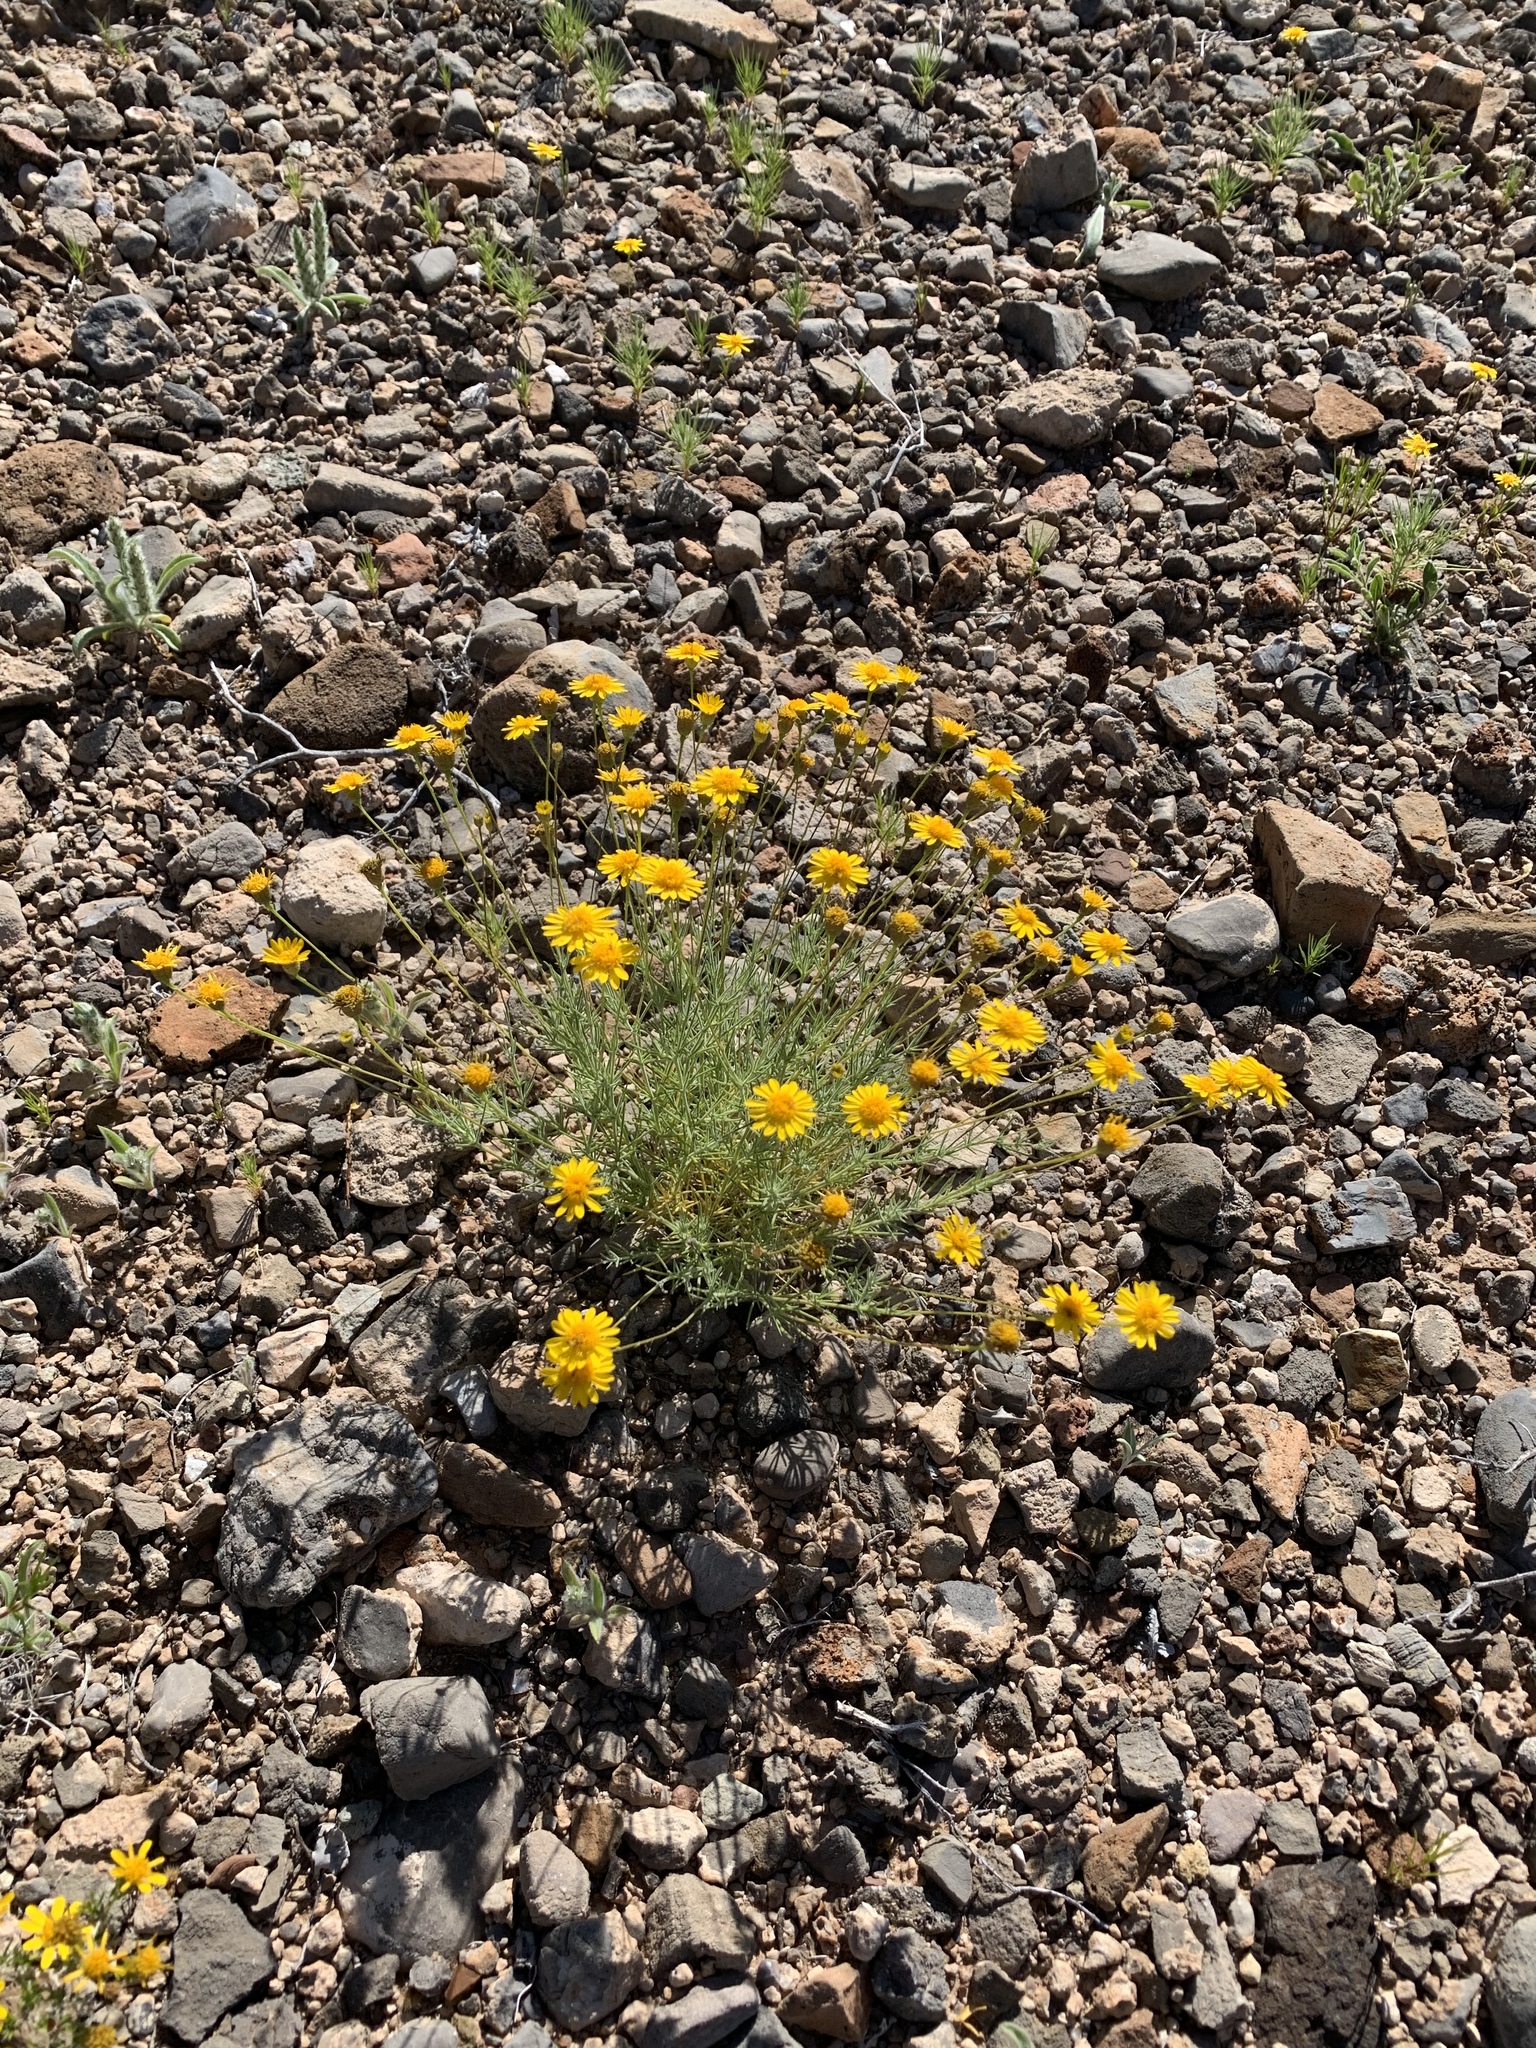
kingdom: Plantae
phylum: Tracheophyta
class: Magnoliopsida
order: Asterales
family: Asteraceae
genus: Thymophylla
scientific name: Thymophylla pentachaeta
